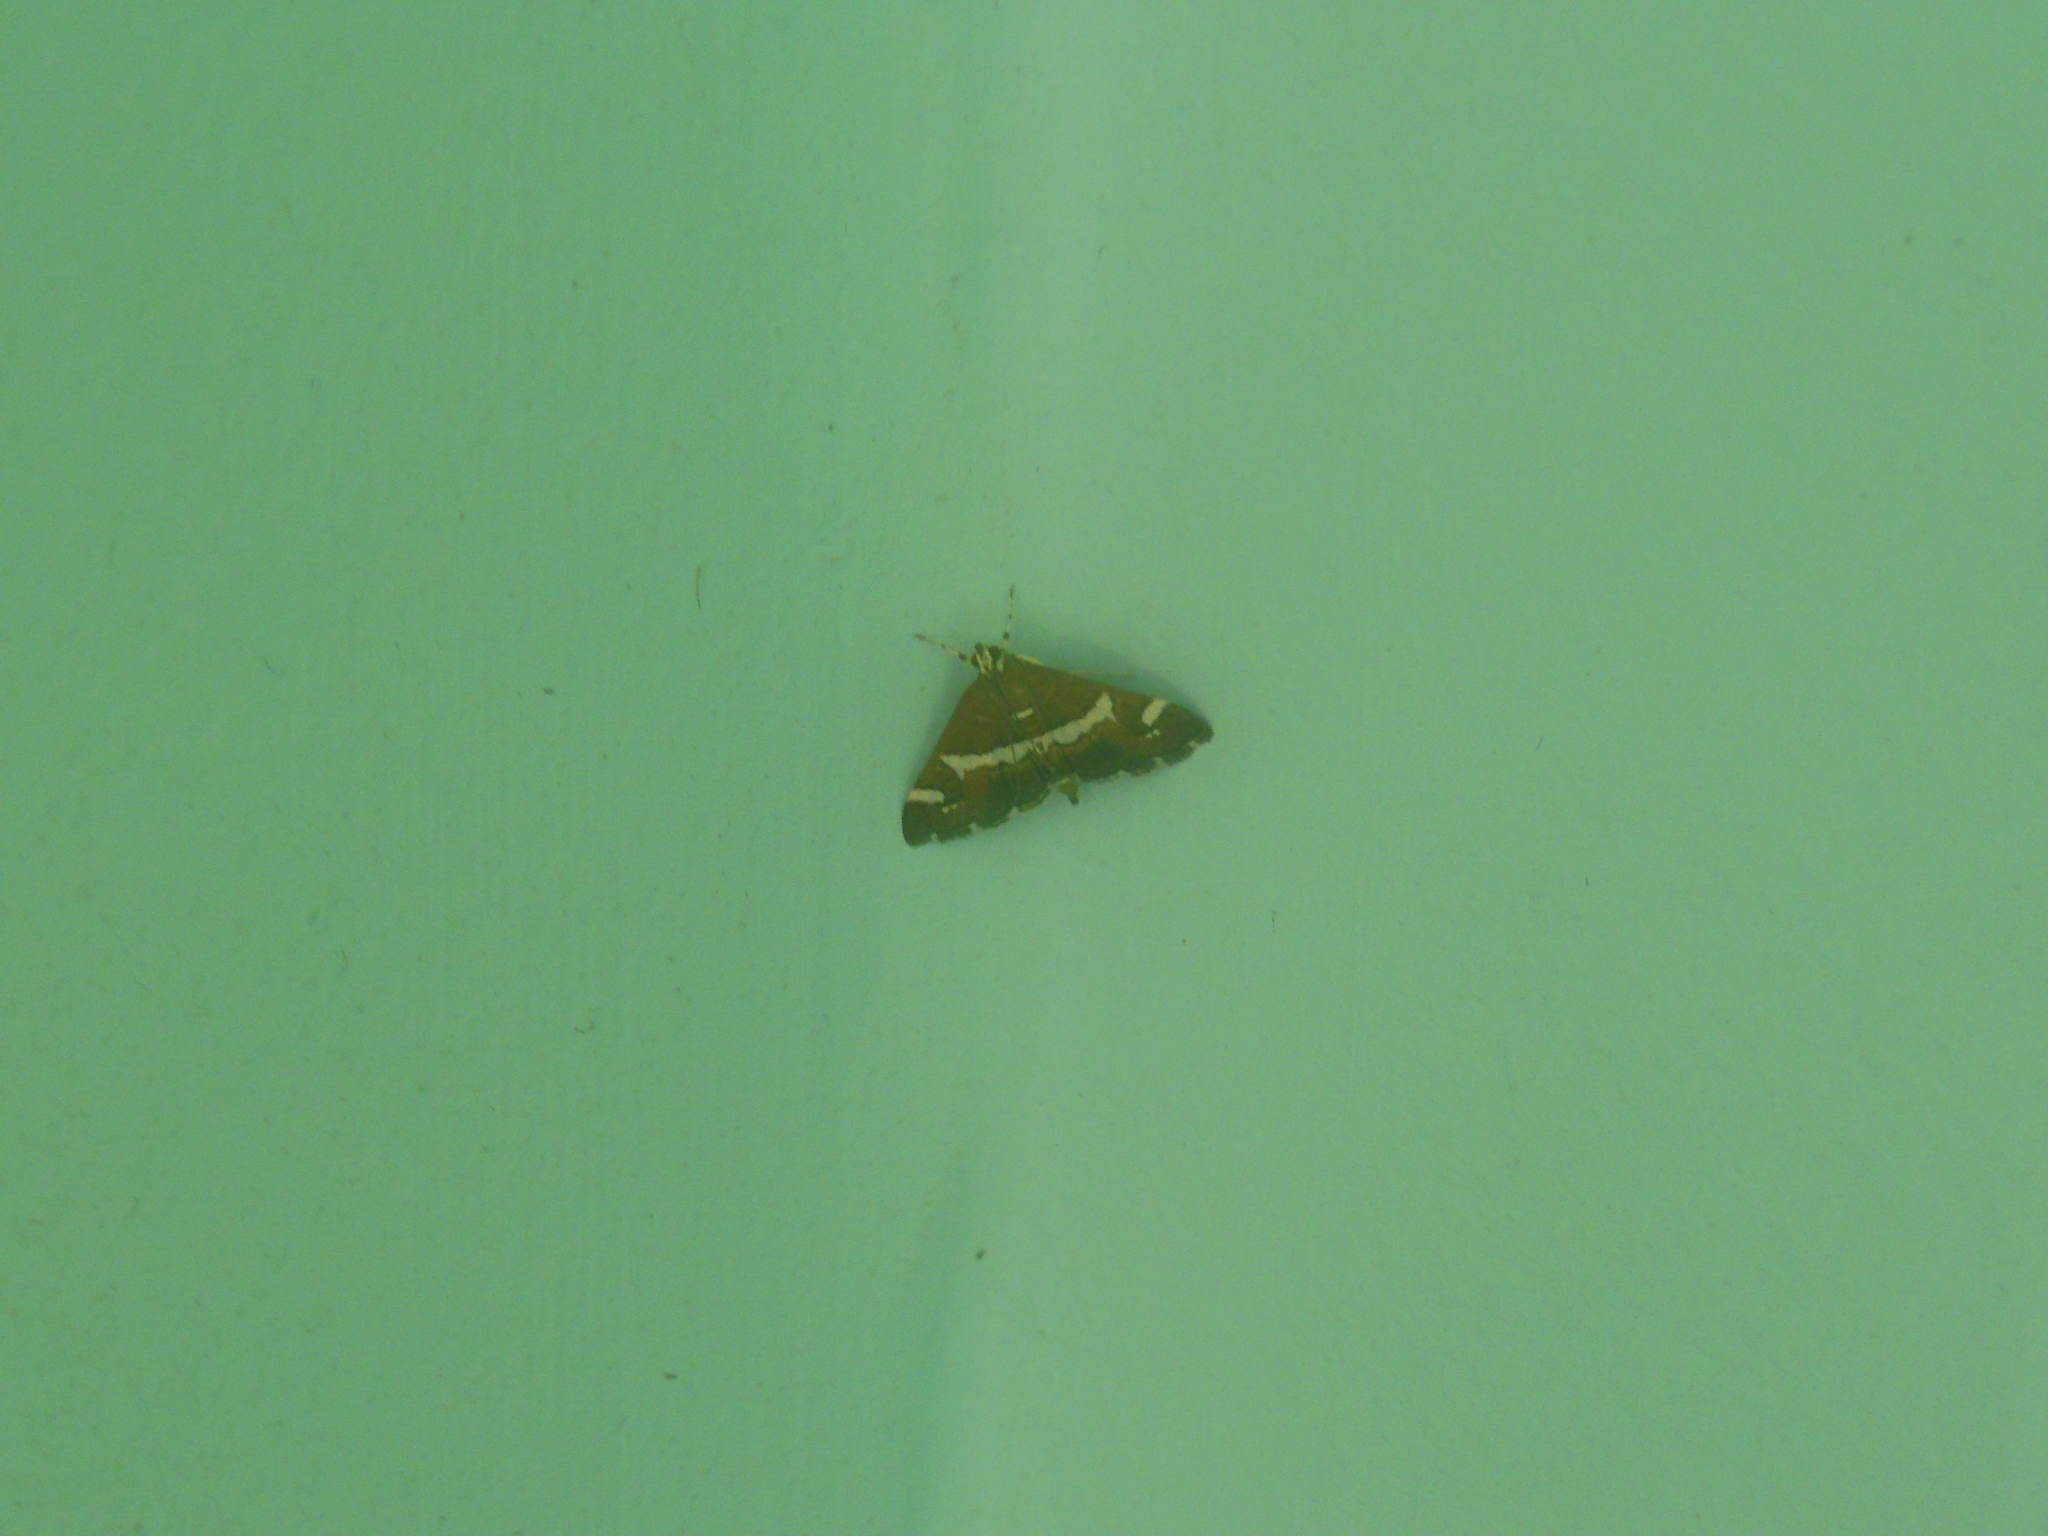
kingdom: Animalia
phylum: Arthropoda
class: Insecta
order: Lepidoptera
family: Crambidae
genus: Spoladea
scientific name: Spoladea recurvalis
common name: Beet webworm moth
